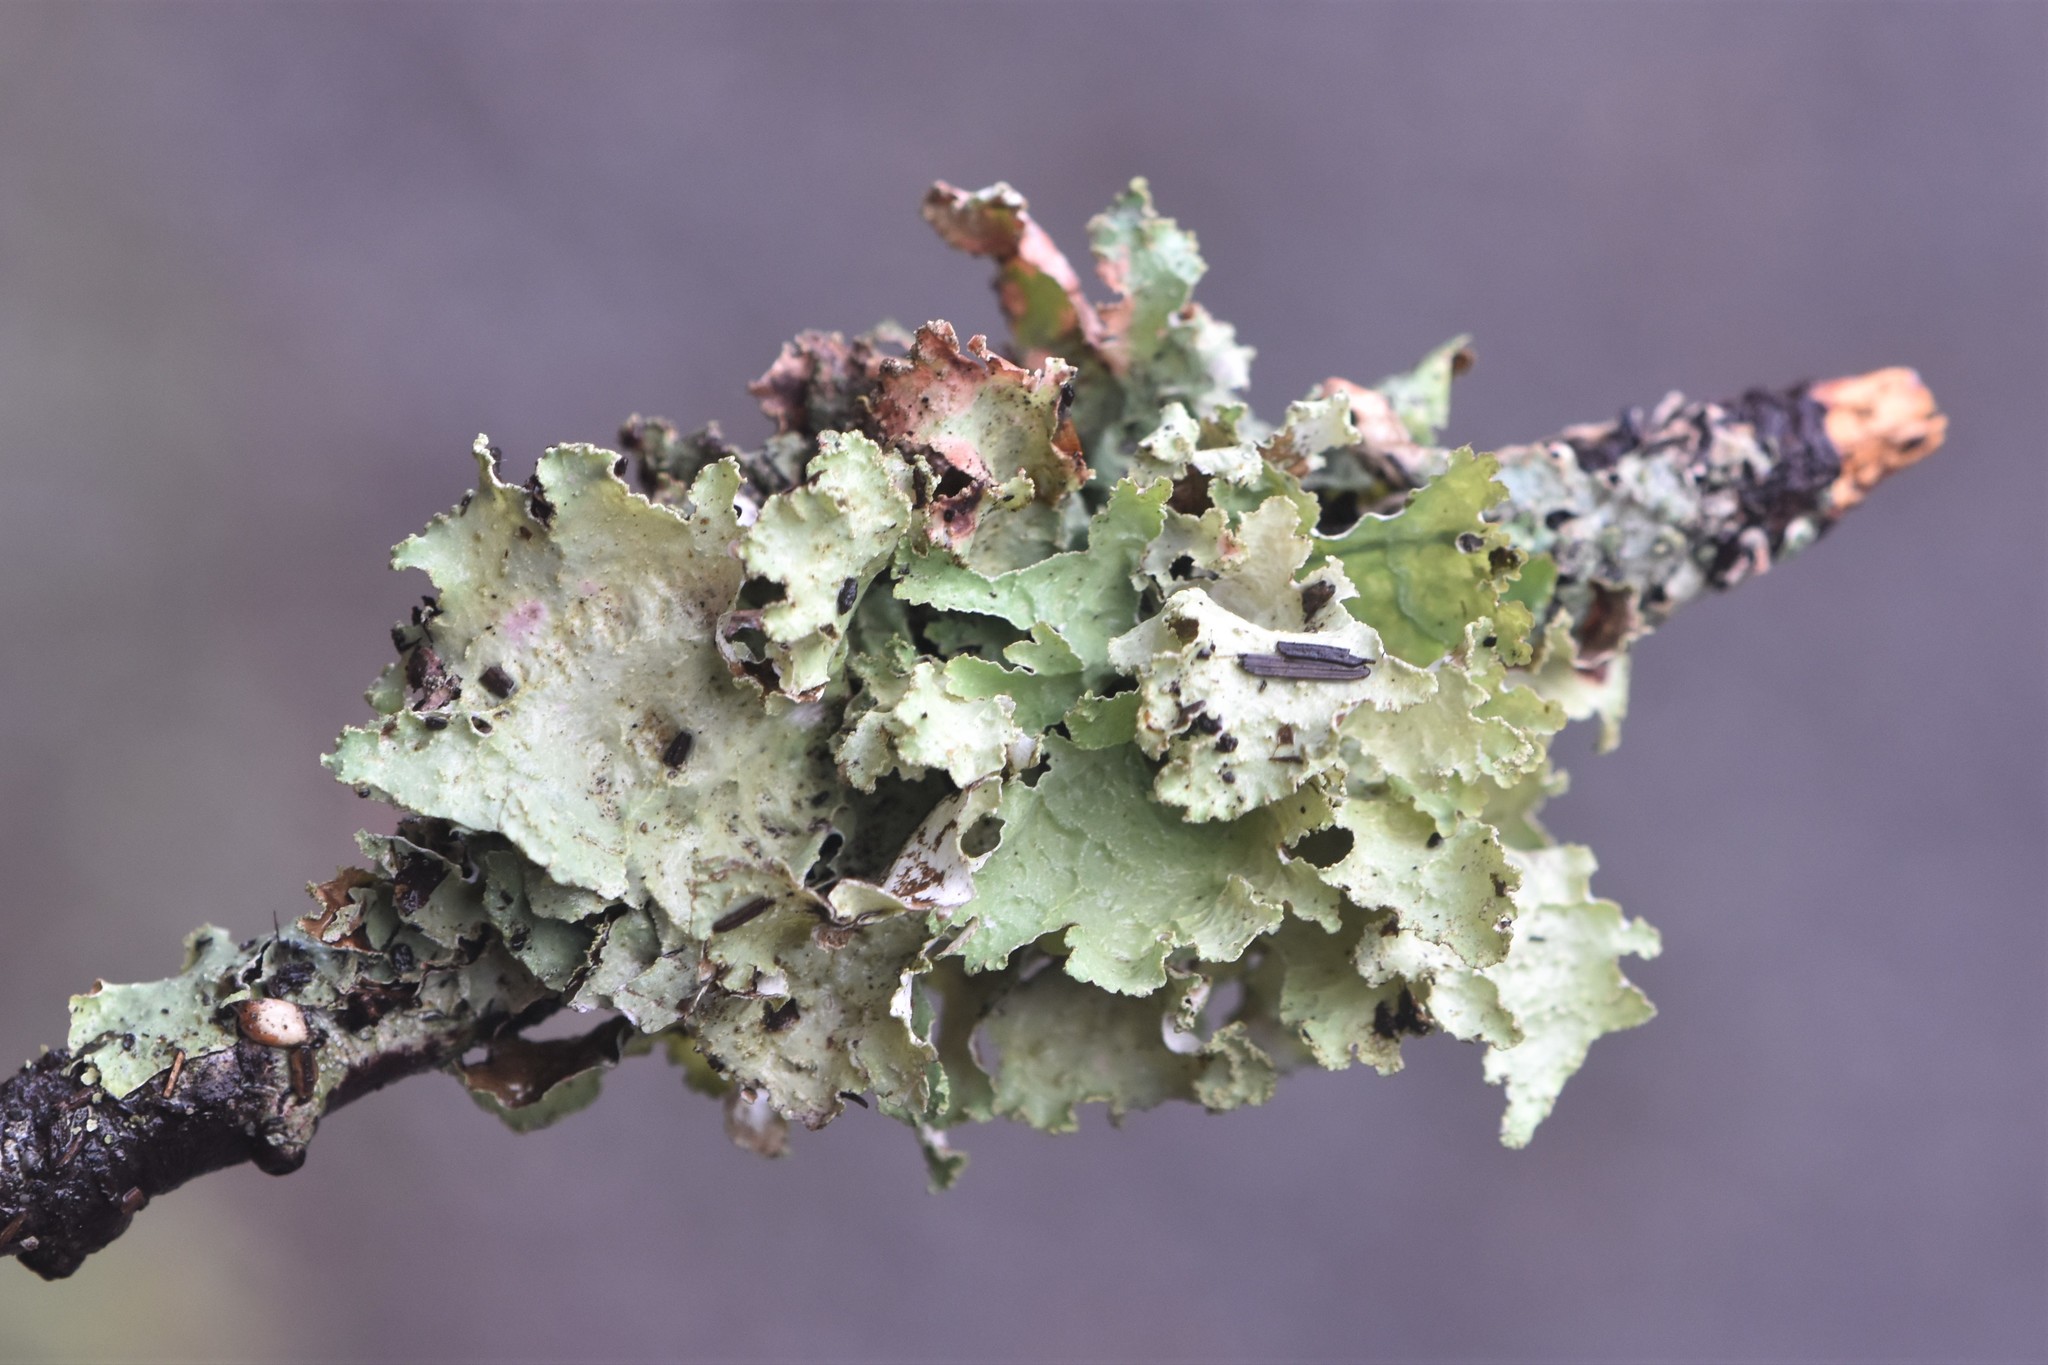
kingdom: Fungi
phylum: Ascomycota
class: Lecanoromycetes
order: Lecanorales
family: Parmeliaceae
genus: Platismatia
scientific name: Platismatia glauca
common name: Varied rag lichen
